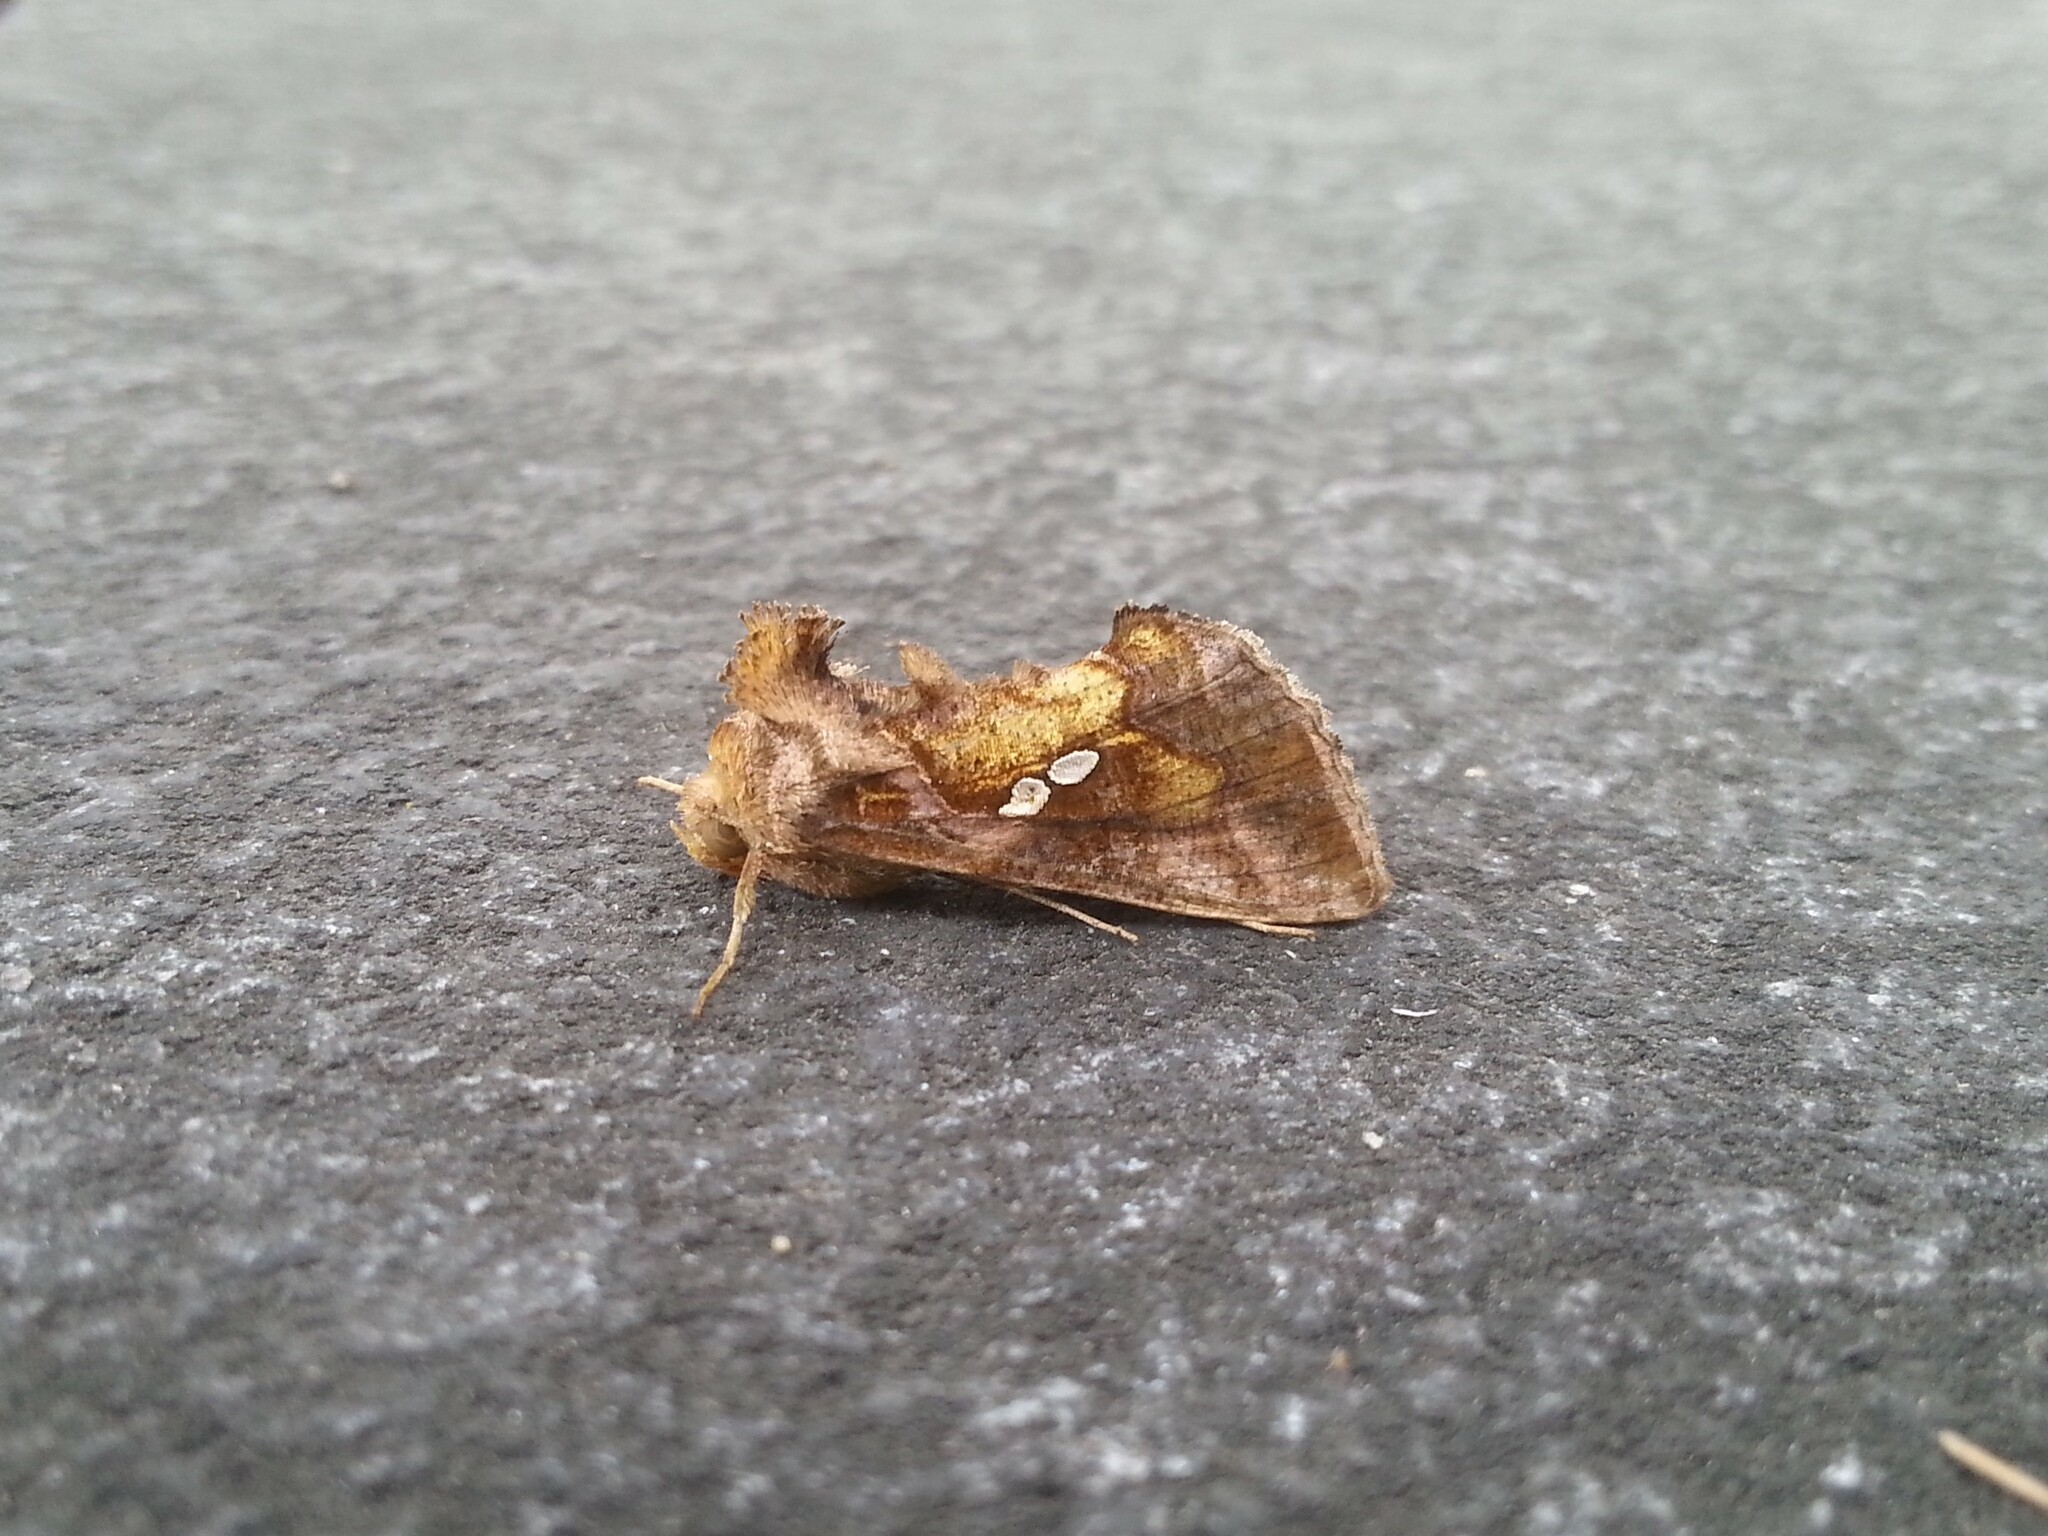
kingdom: Animalia
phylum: Arthropoda
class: Insecta
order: Lepidoptera
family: Noctuidae
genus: Chrysodeixis
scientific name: Chrysodeixis chalcites
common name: Golden twin-spot
